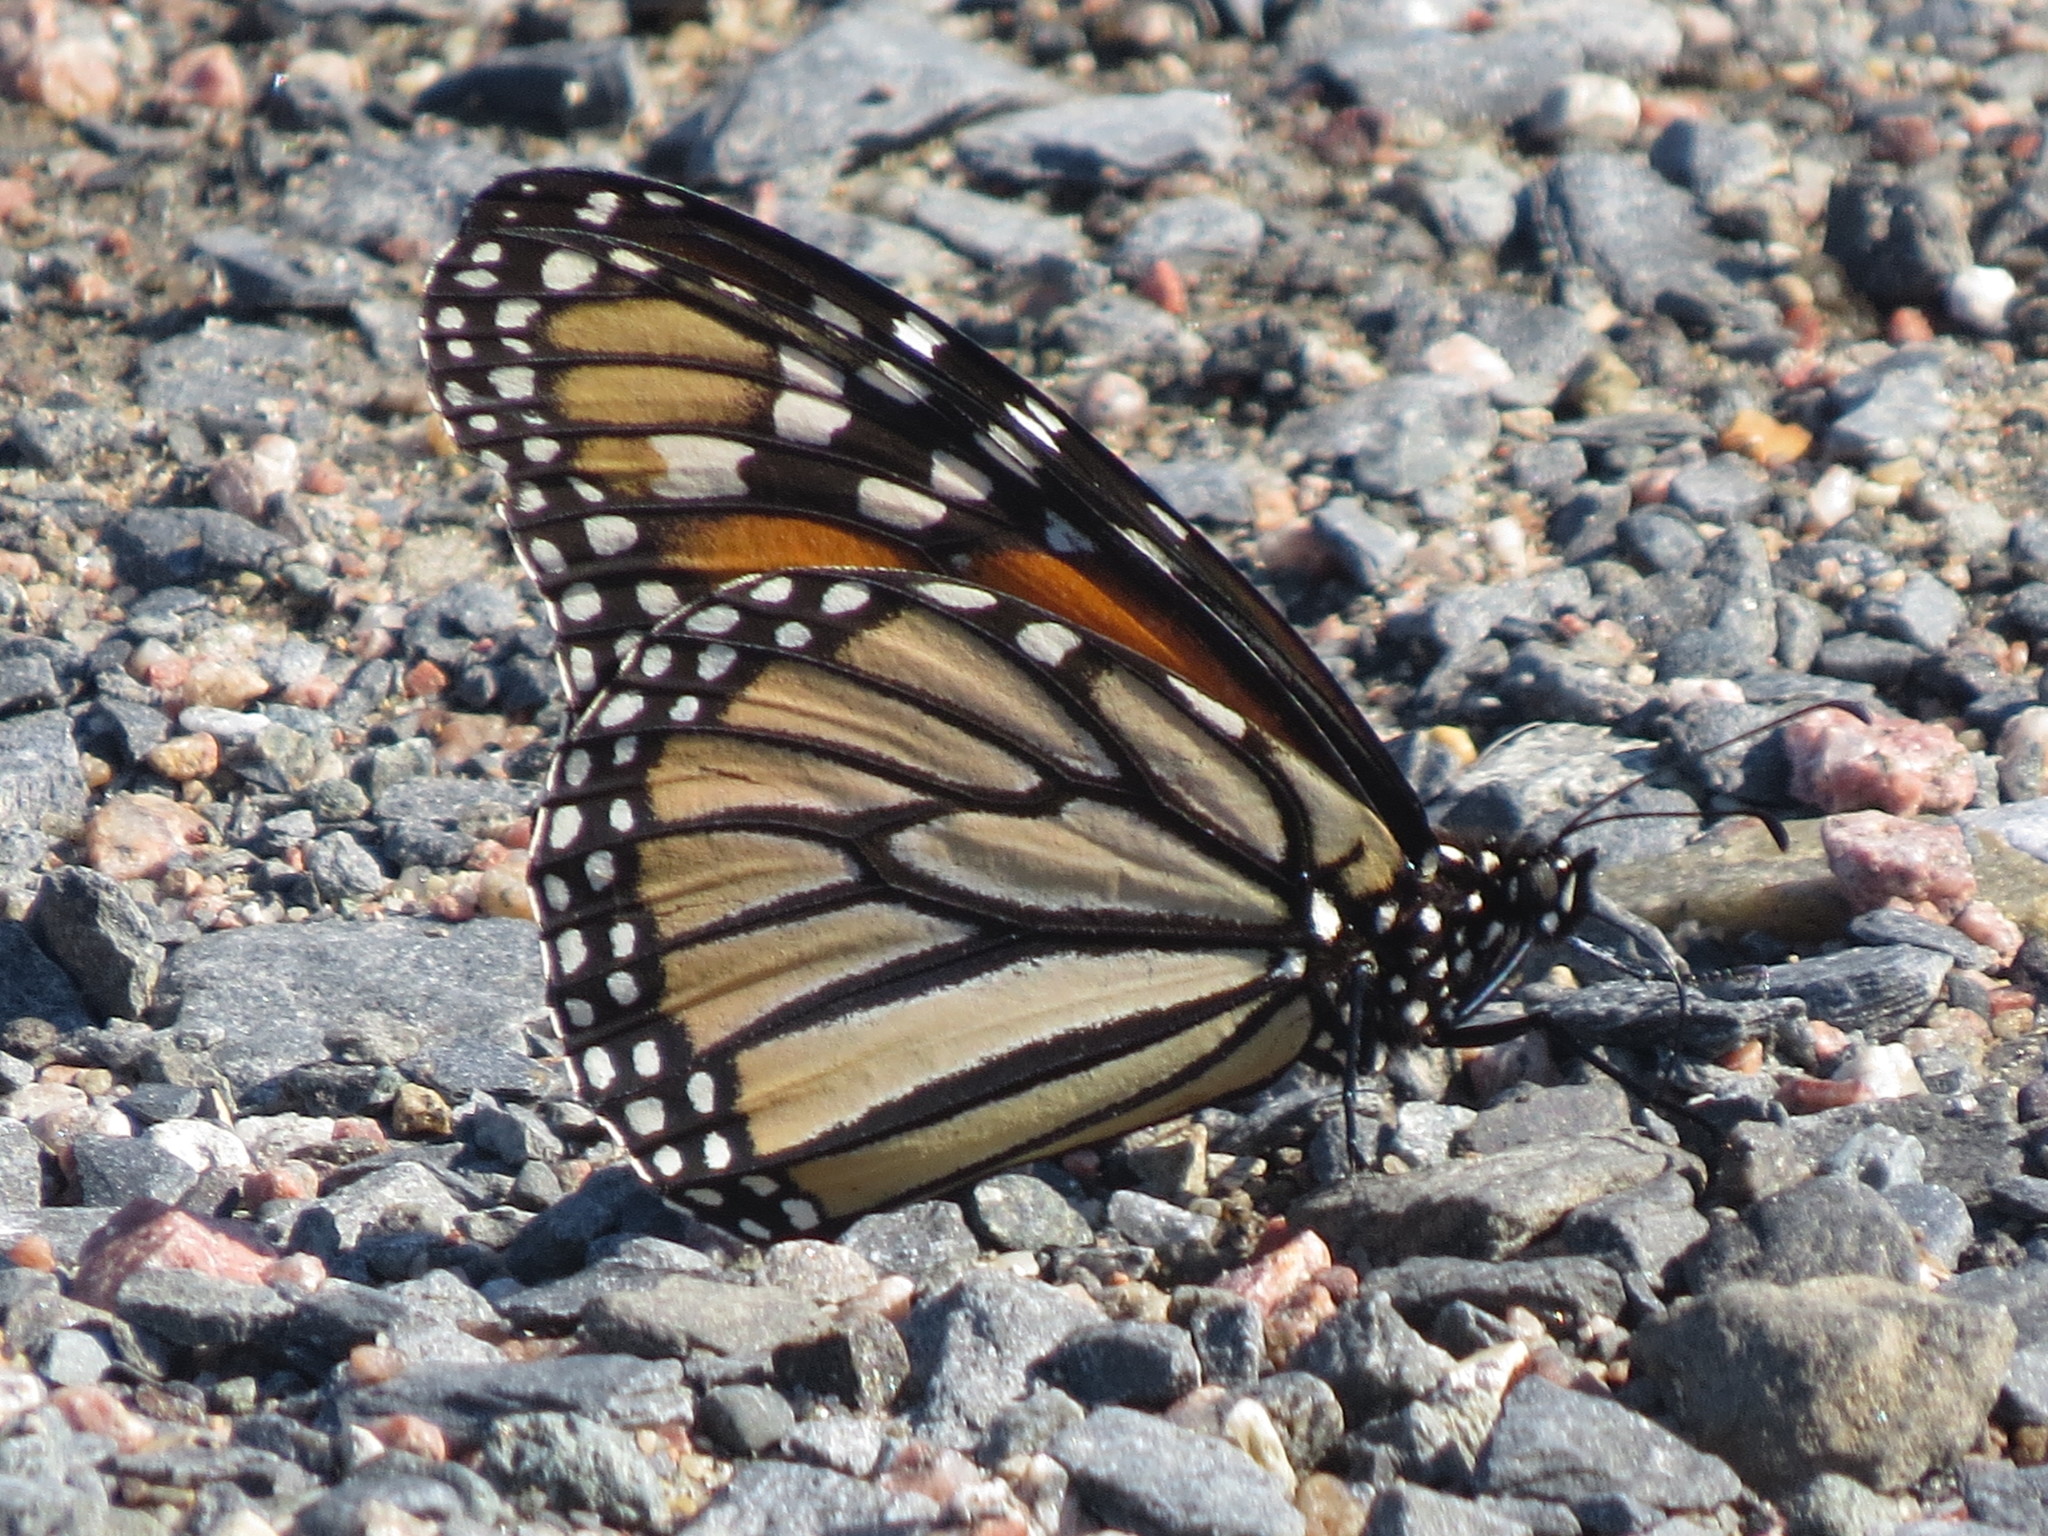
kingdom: Animalia
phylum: Arthropoda
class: Insecta
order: Lepidoptera
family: Nymphalidae
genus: Danaus
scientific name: Danaus plexippus
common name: Monarch
